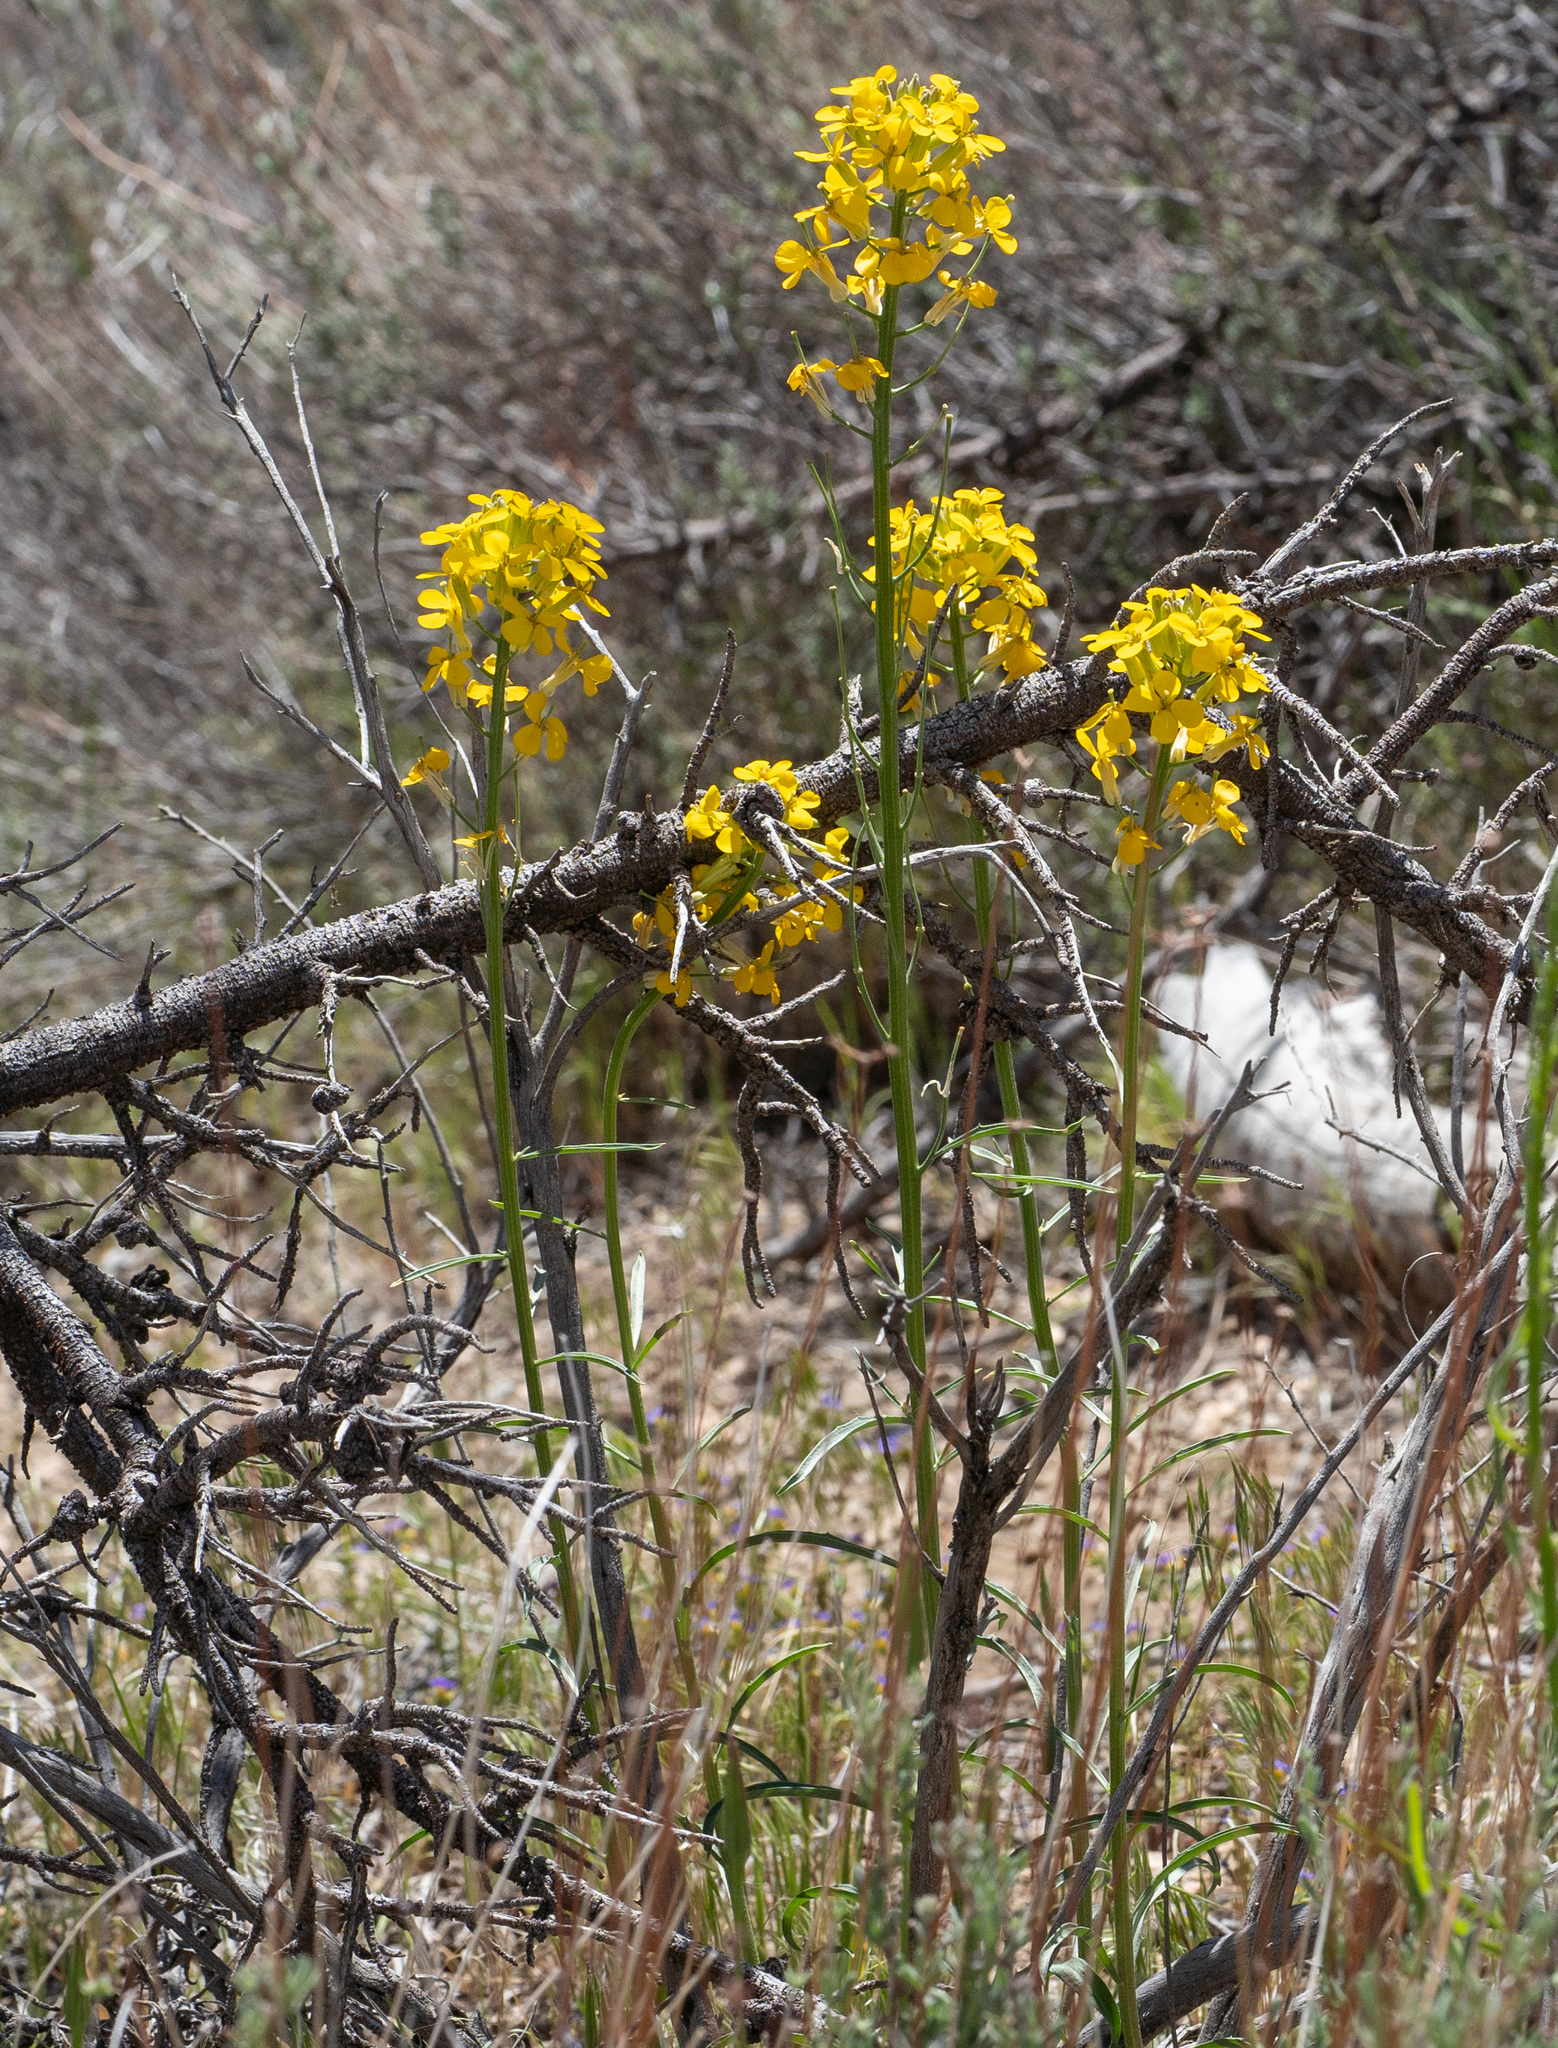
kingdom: Plantae
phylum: Tracheophyta
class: Magnoliopsida
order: Brassicales
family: Brassicaceae
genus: Erysimum
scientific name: Erysimum capitatum
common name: Western wallflower
